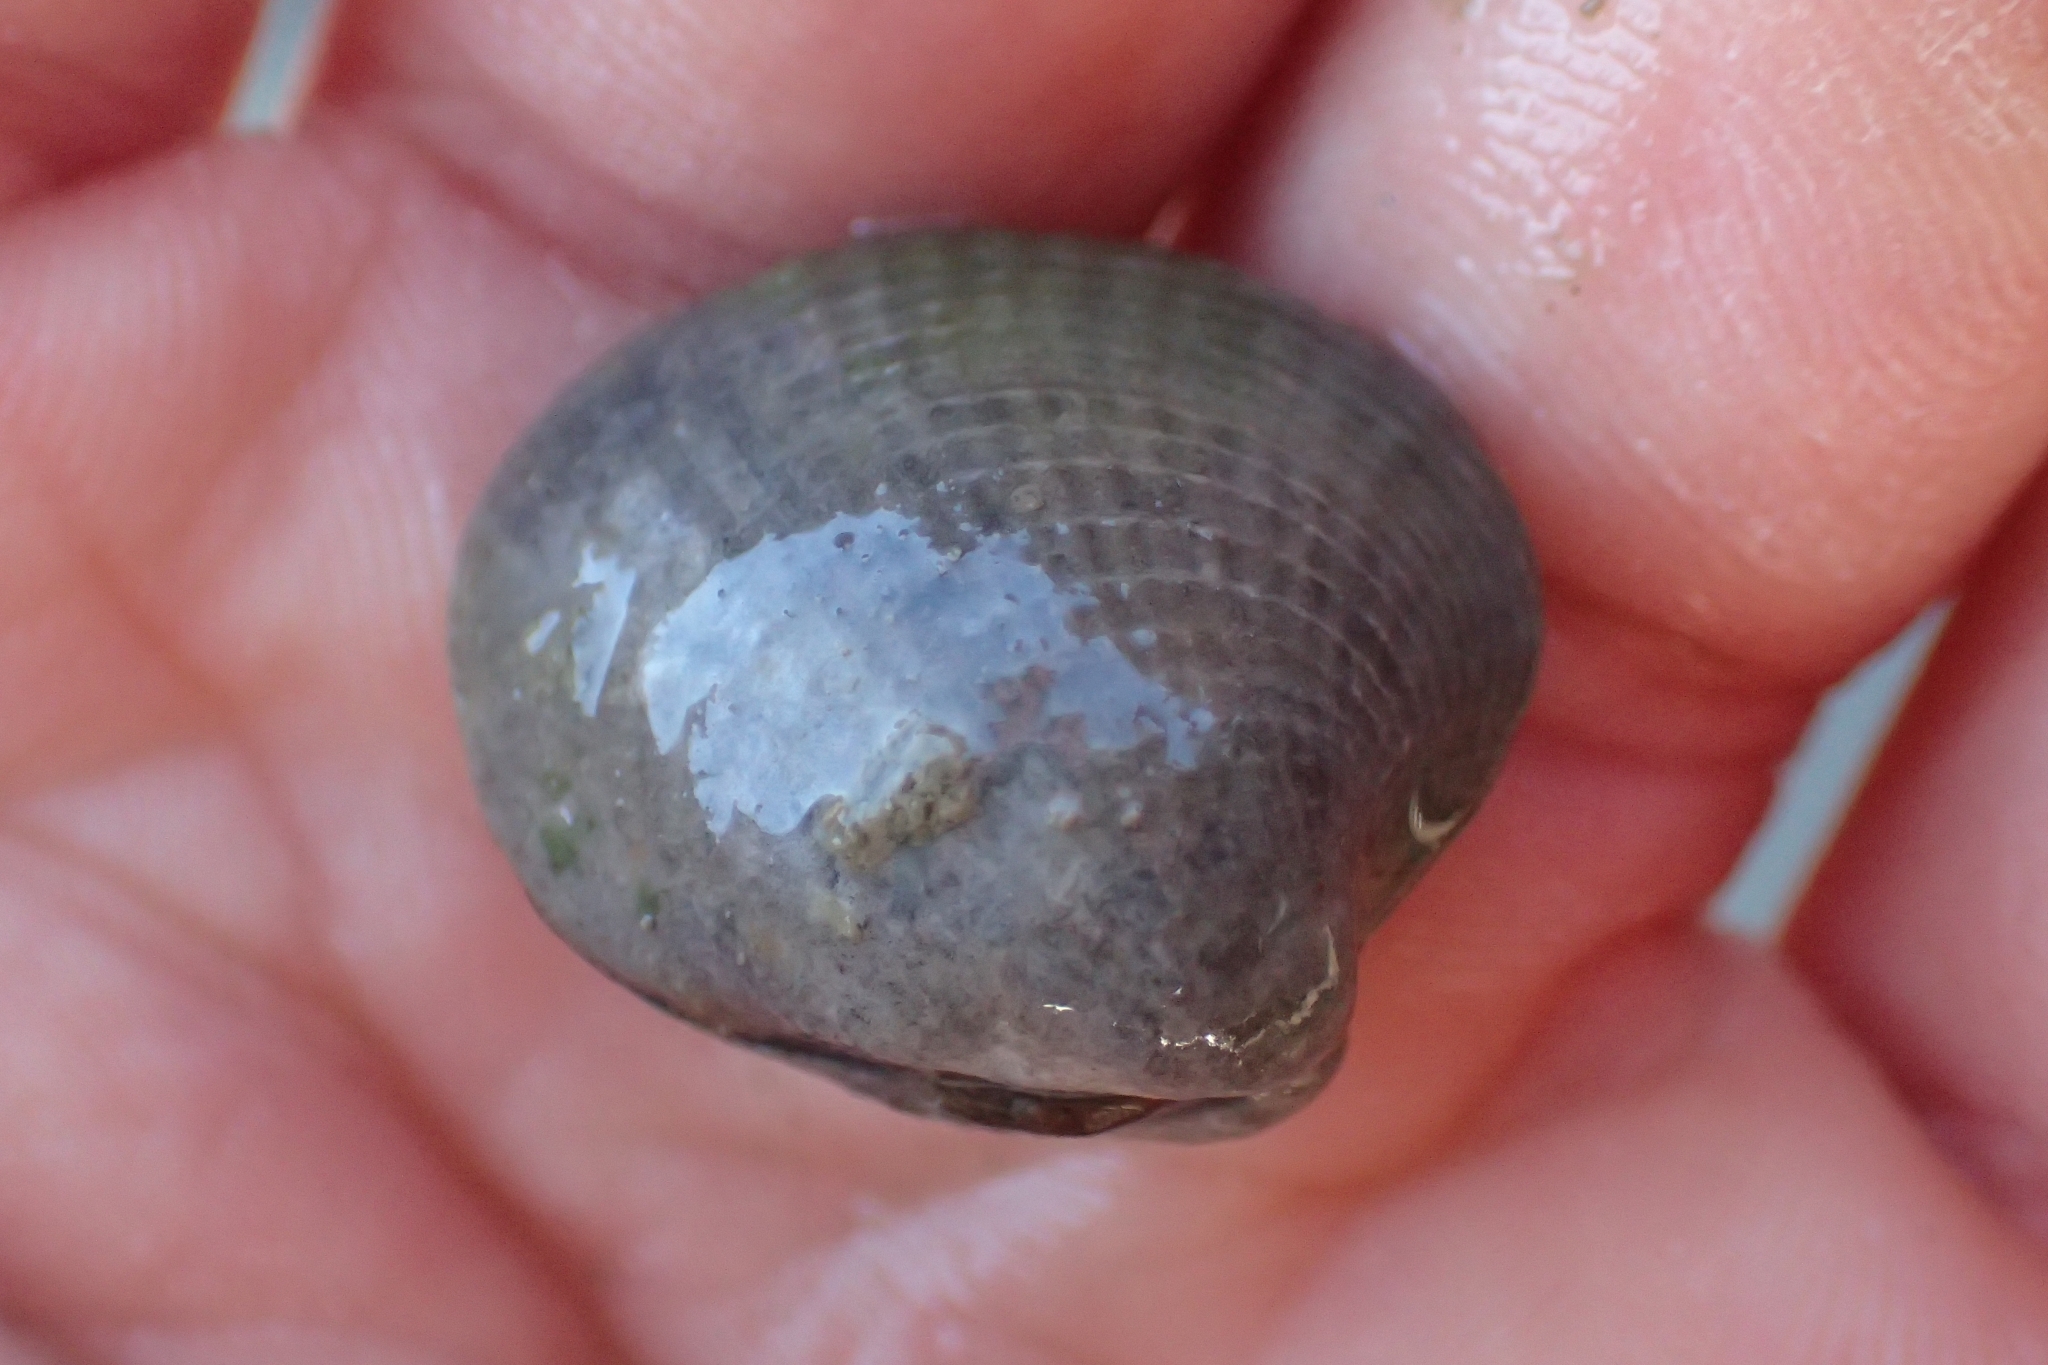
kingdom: Animalia
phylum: Mollusca
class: Bivalvia
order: Venerida
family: Veneridae
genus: Austrovenus
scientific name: Austrovenus stutchburyi
